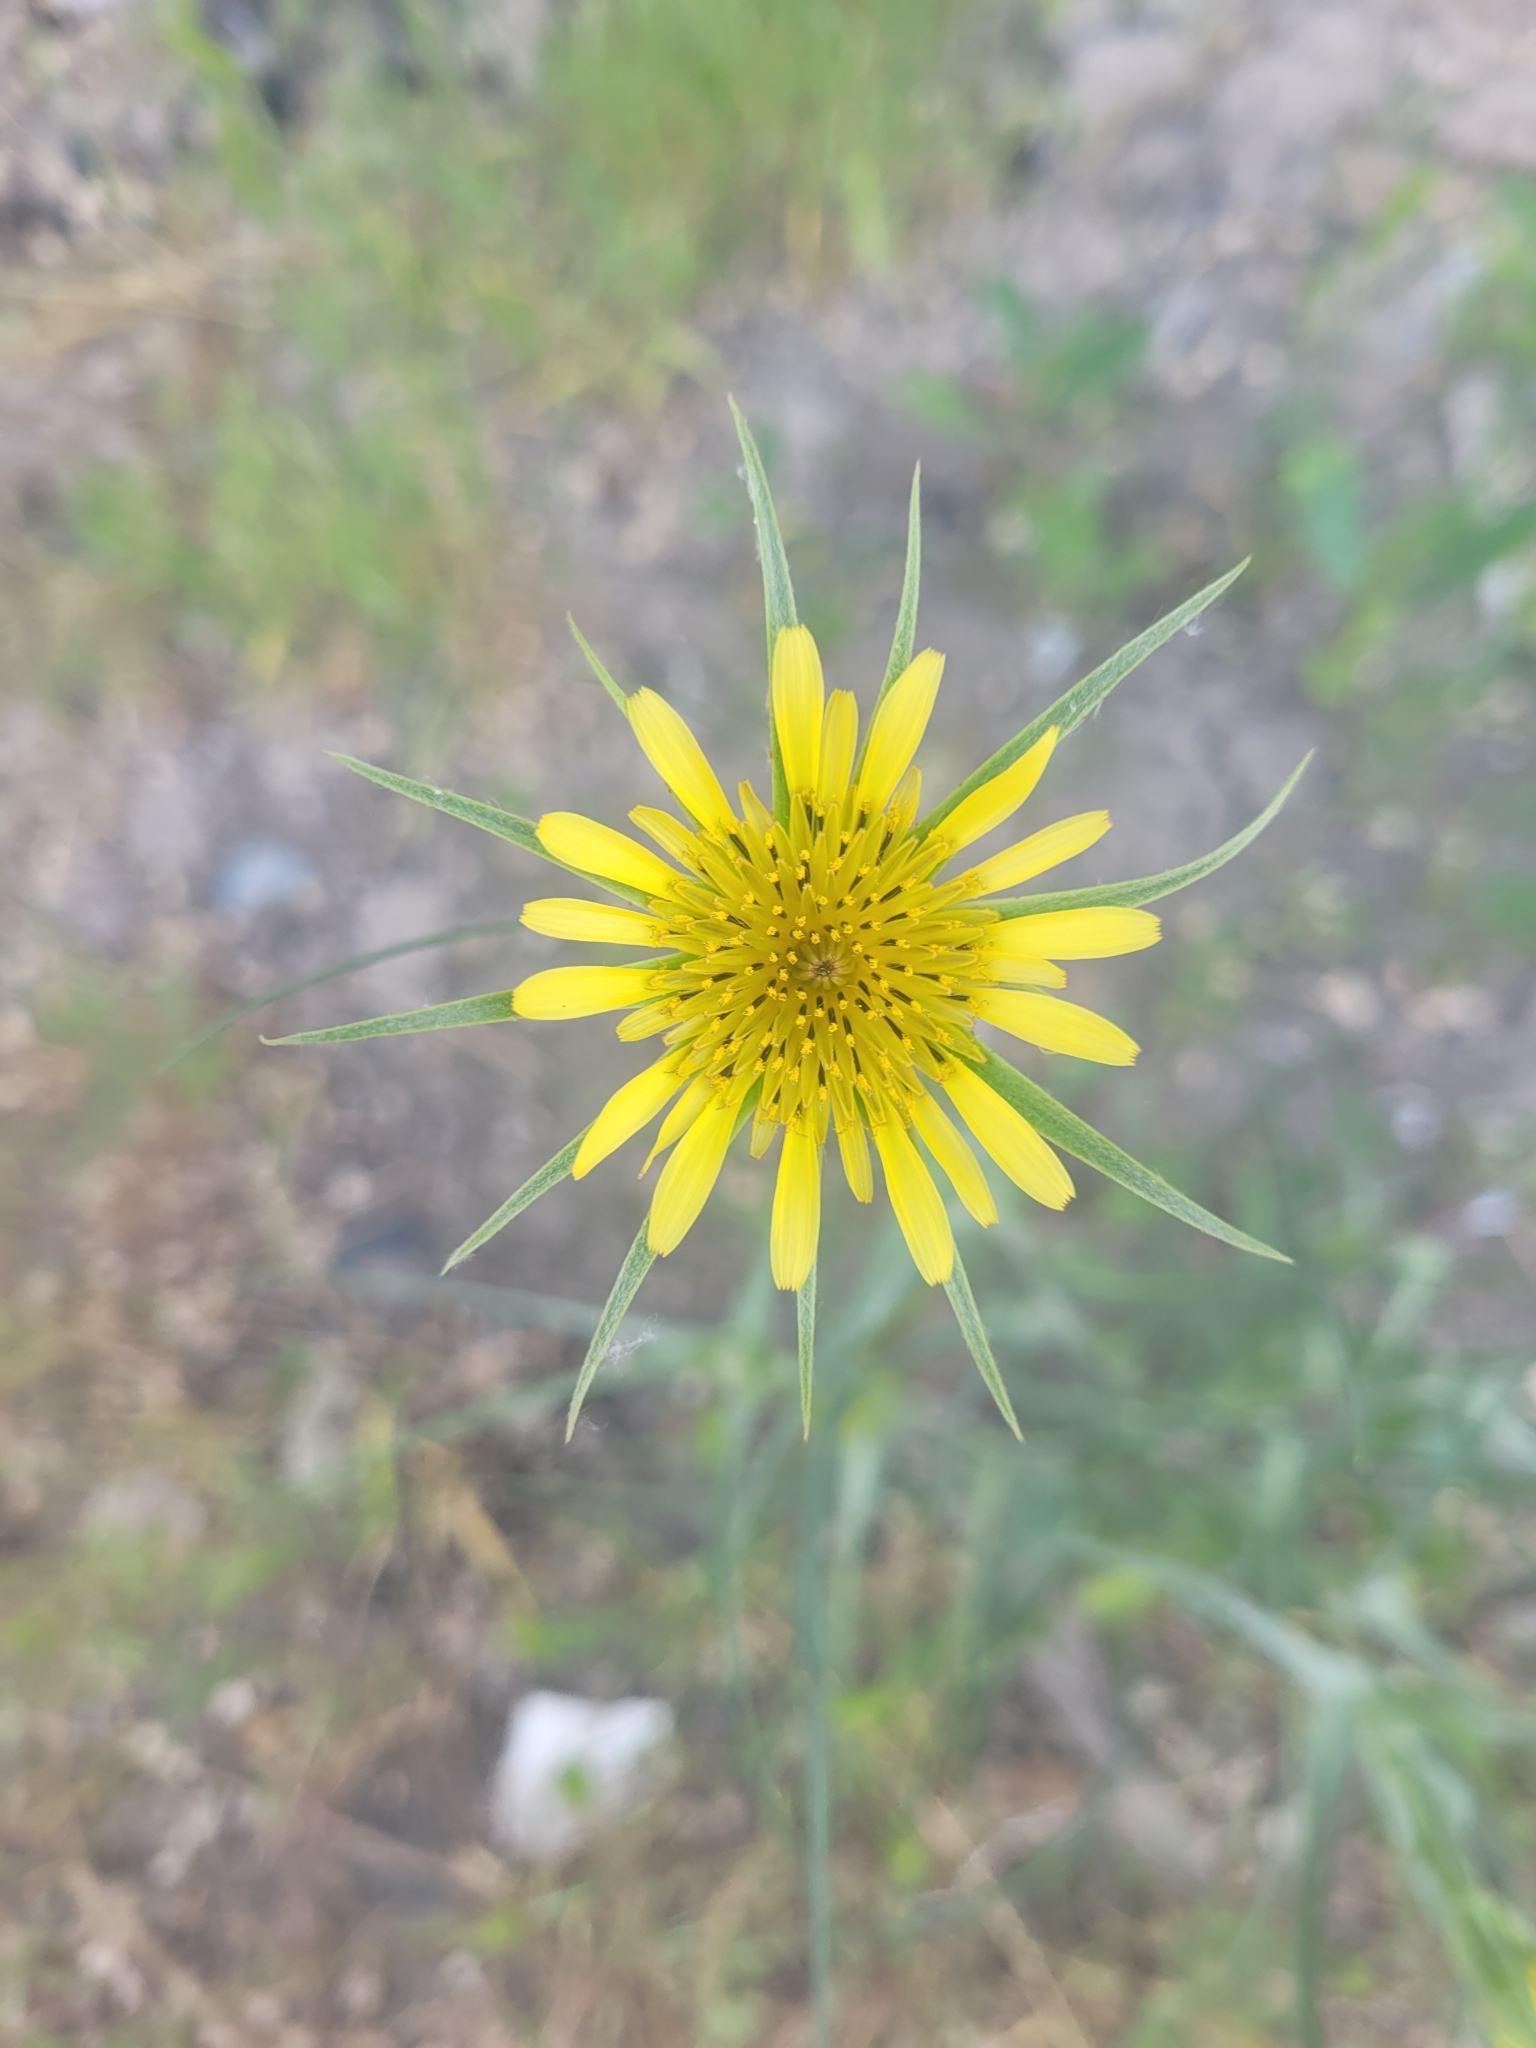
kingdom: Plantae
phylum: Tracheophyta
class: Magnoliopsida
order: Asterales
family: Asteraceae
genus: Tragopogon
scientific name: Tragopogon dubius
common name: Yellow salsify
